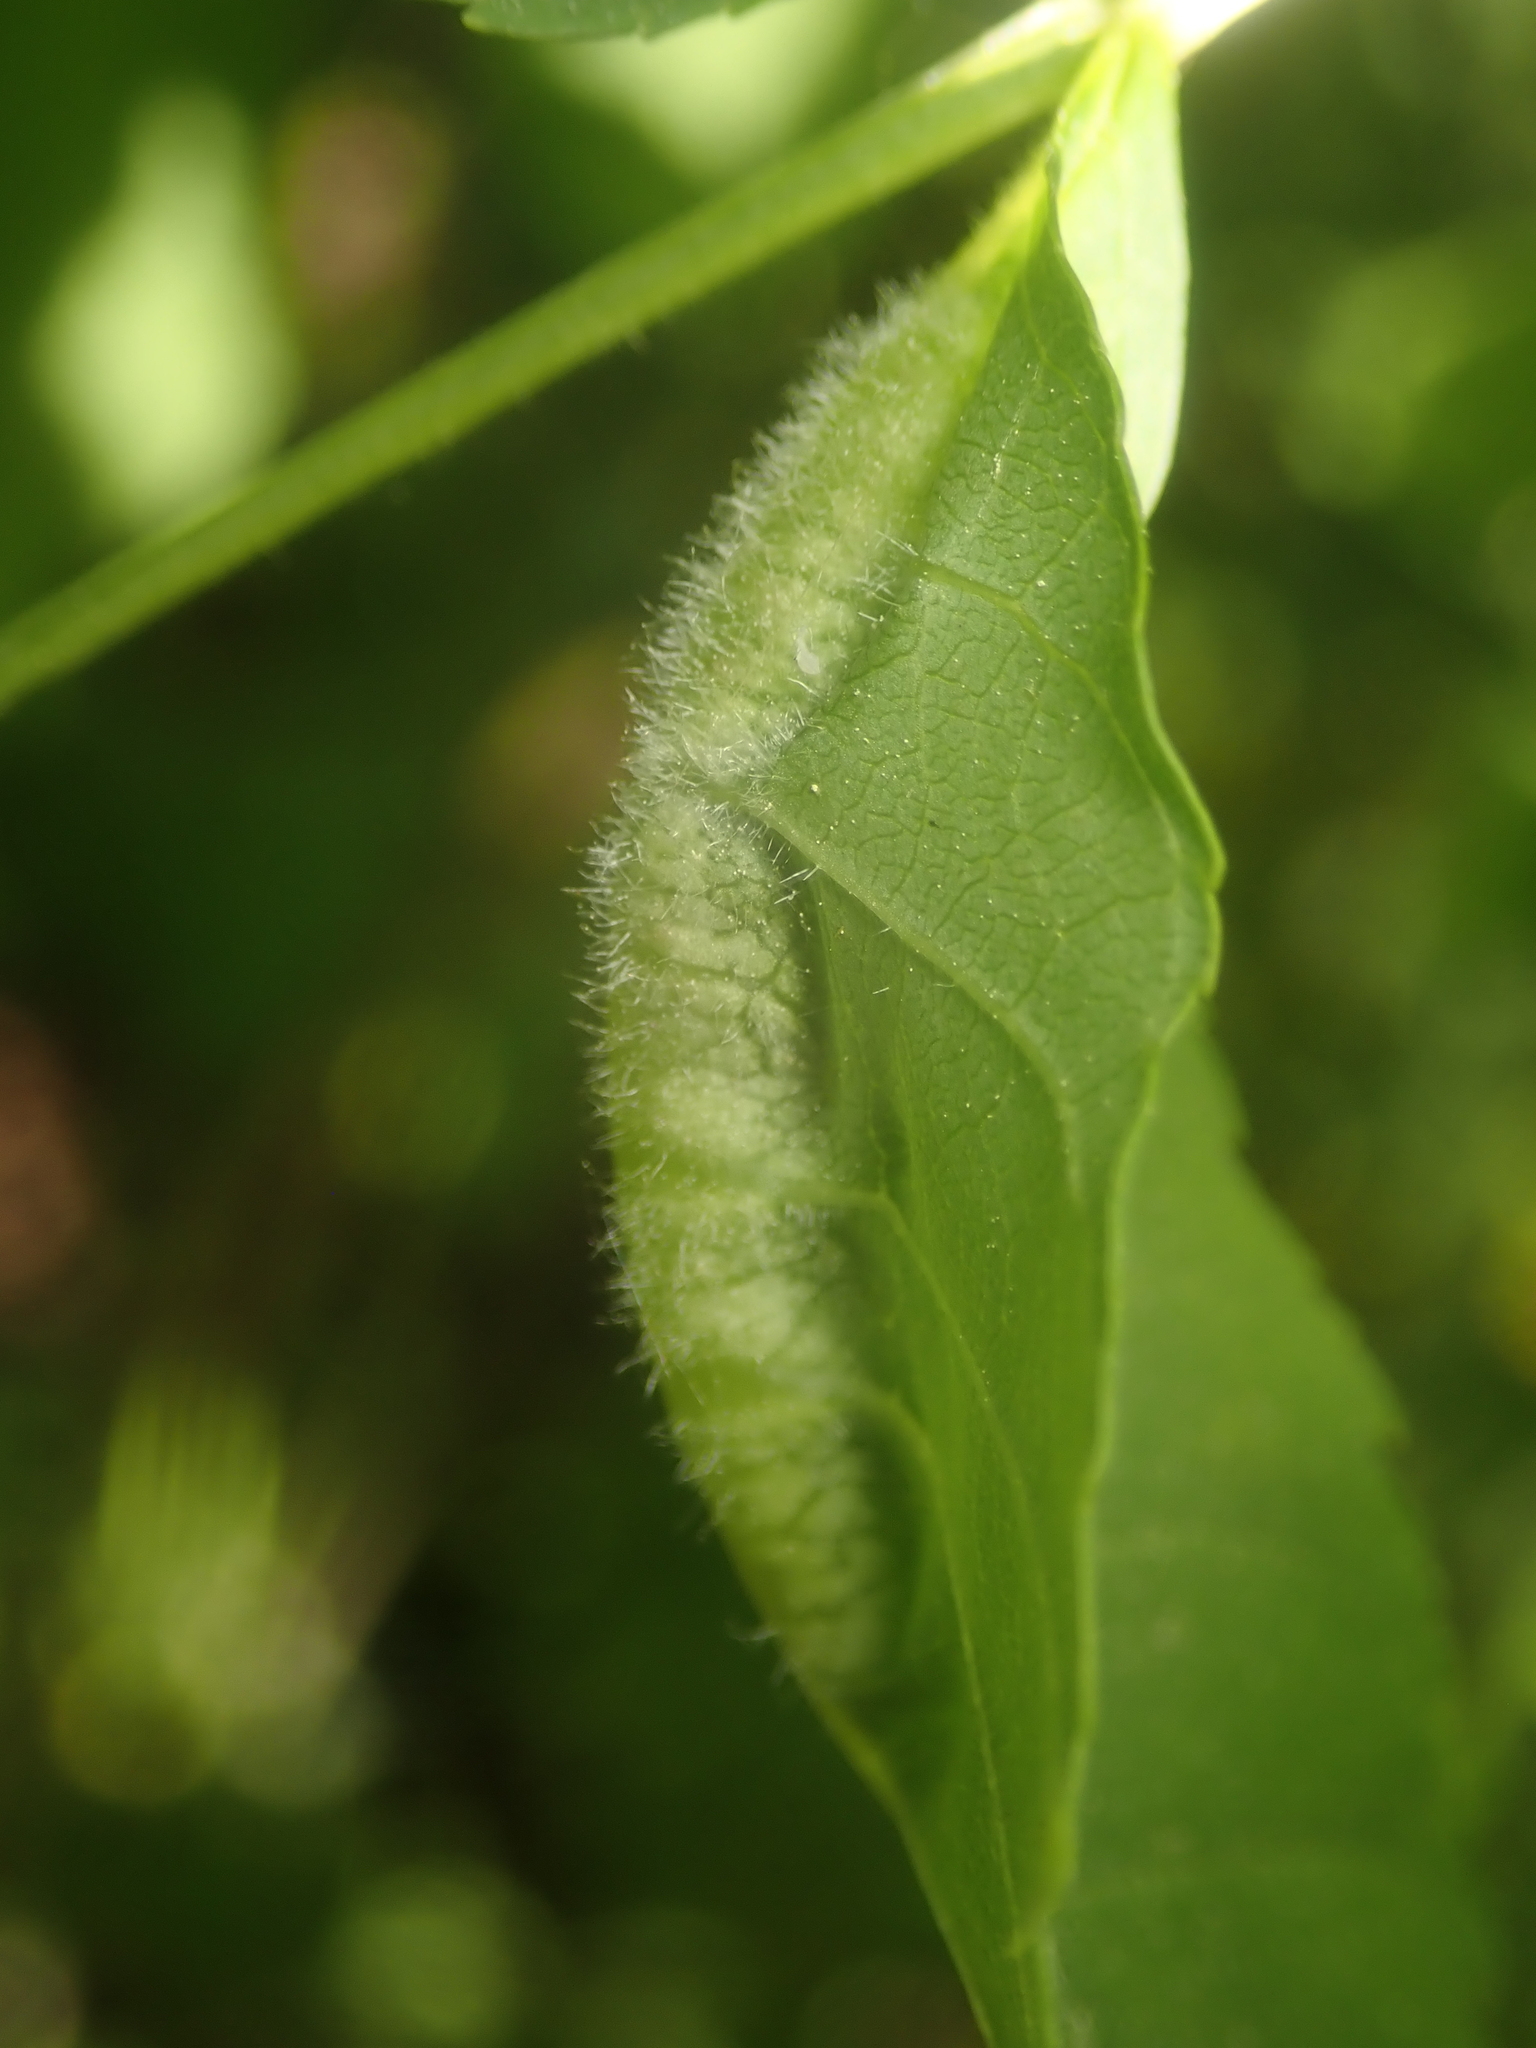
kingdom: Animalia
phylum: Arthropoda
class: Insecta
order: Diptera
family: Cecidomyiidae
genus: Dasineura
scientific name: Dasineura fraxini
